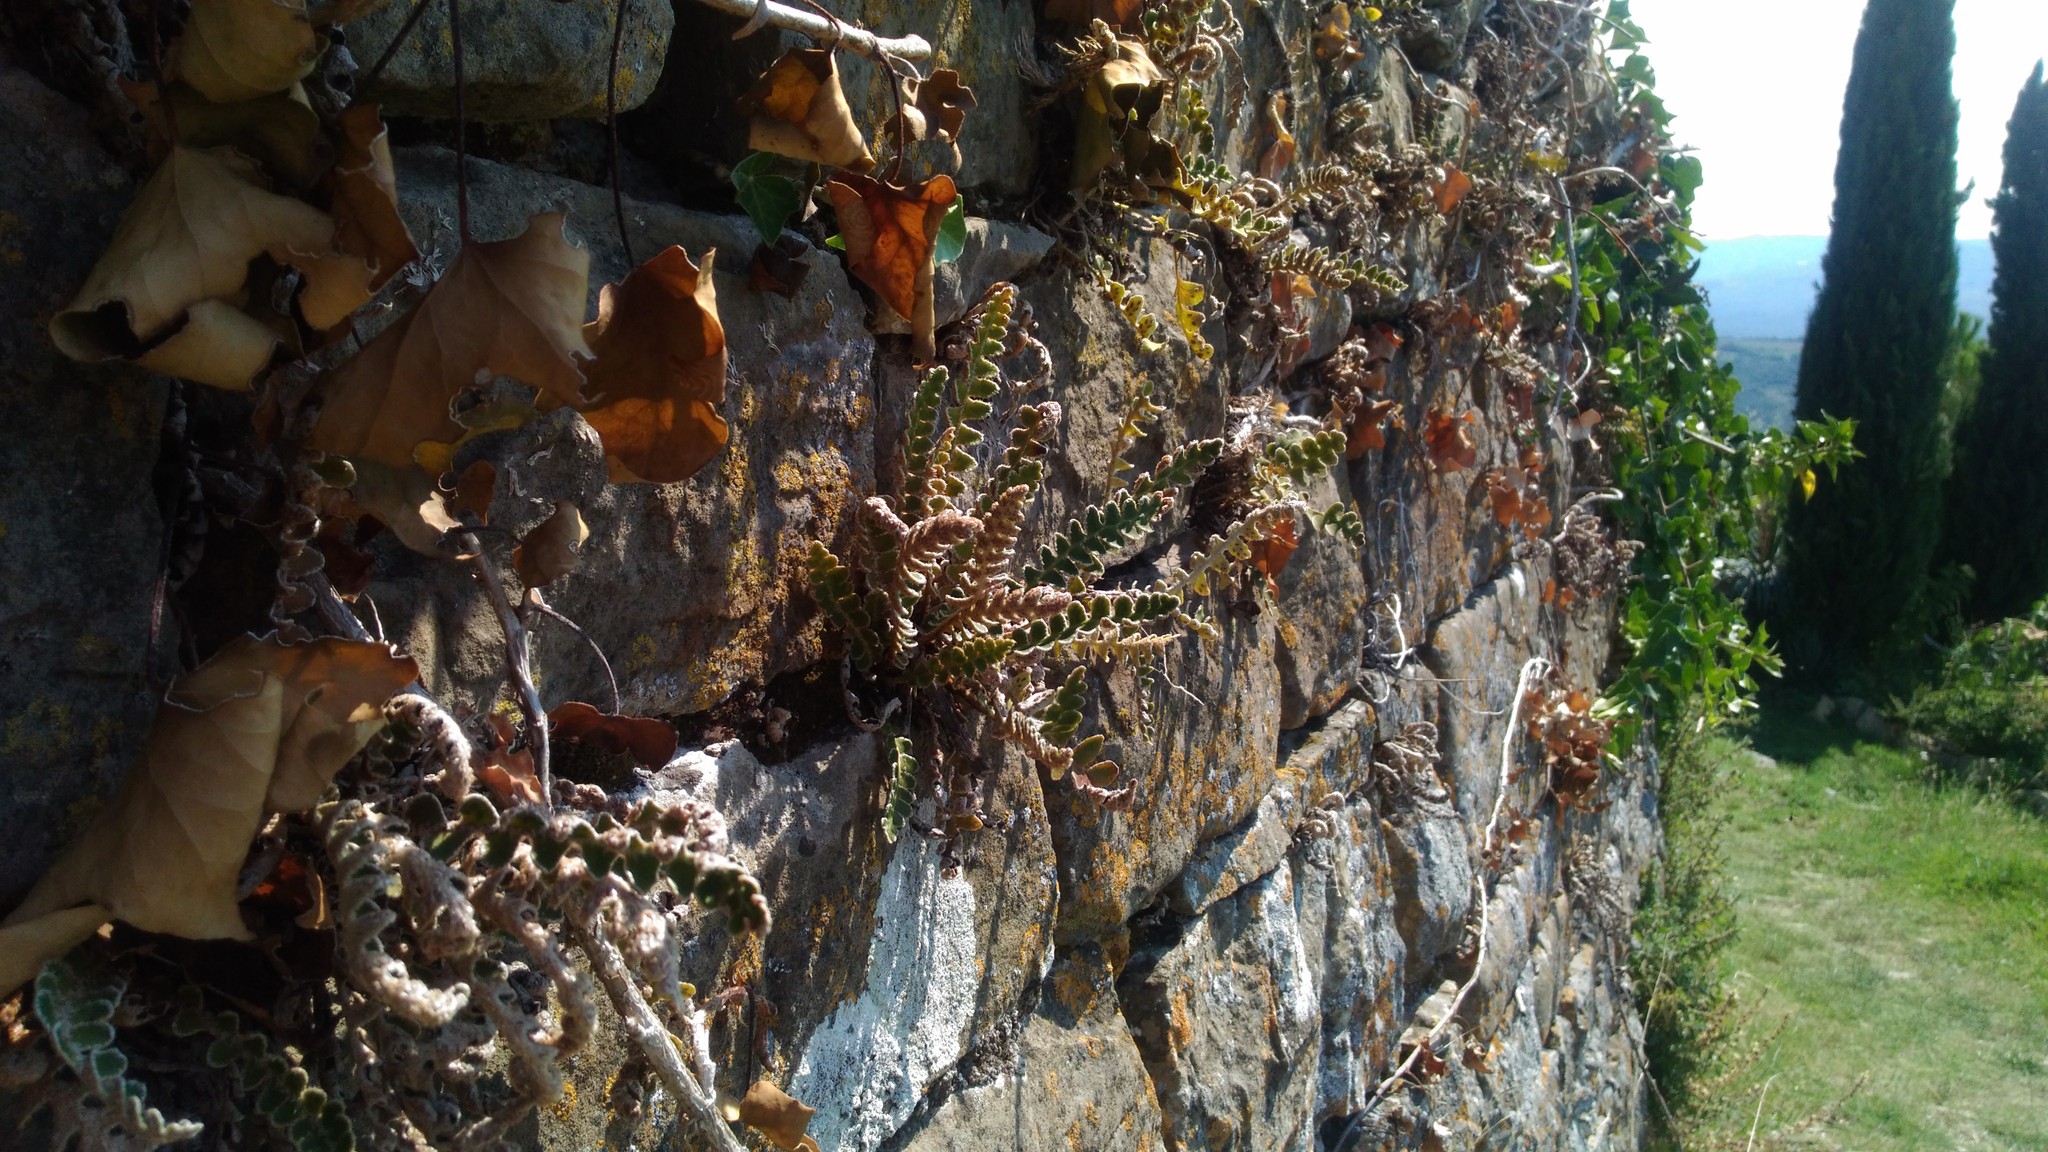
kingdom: Plantae
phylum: Tracheophyta
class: Polypodiopsida
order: Polypodiales
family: Aspleniaceae
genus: Asplenium
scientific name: Asplenium ceterach
